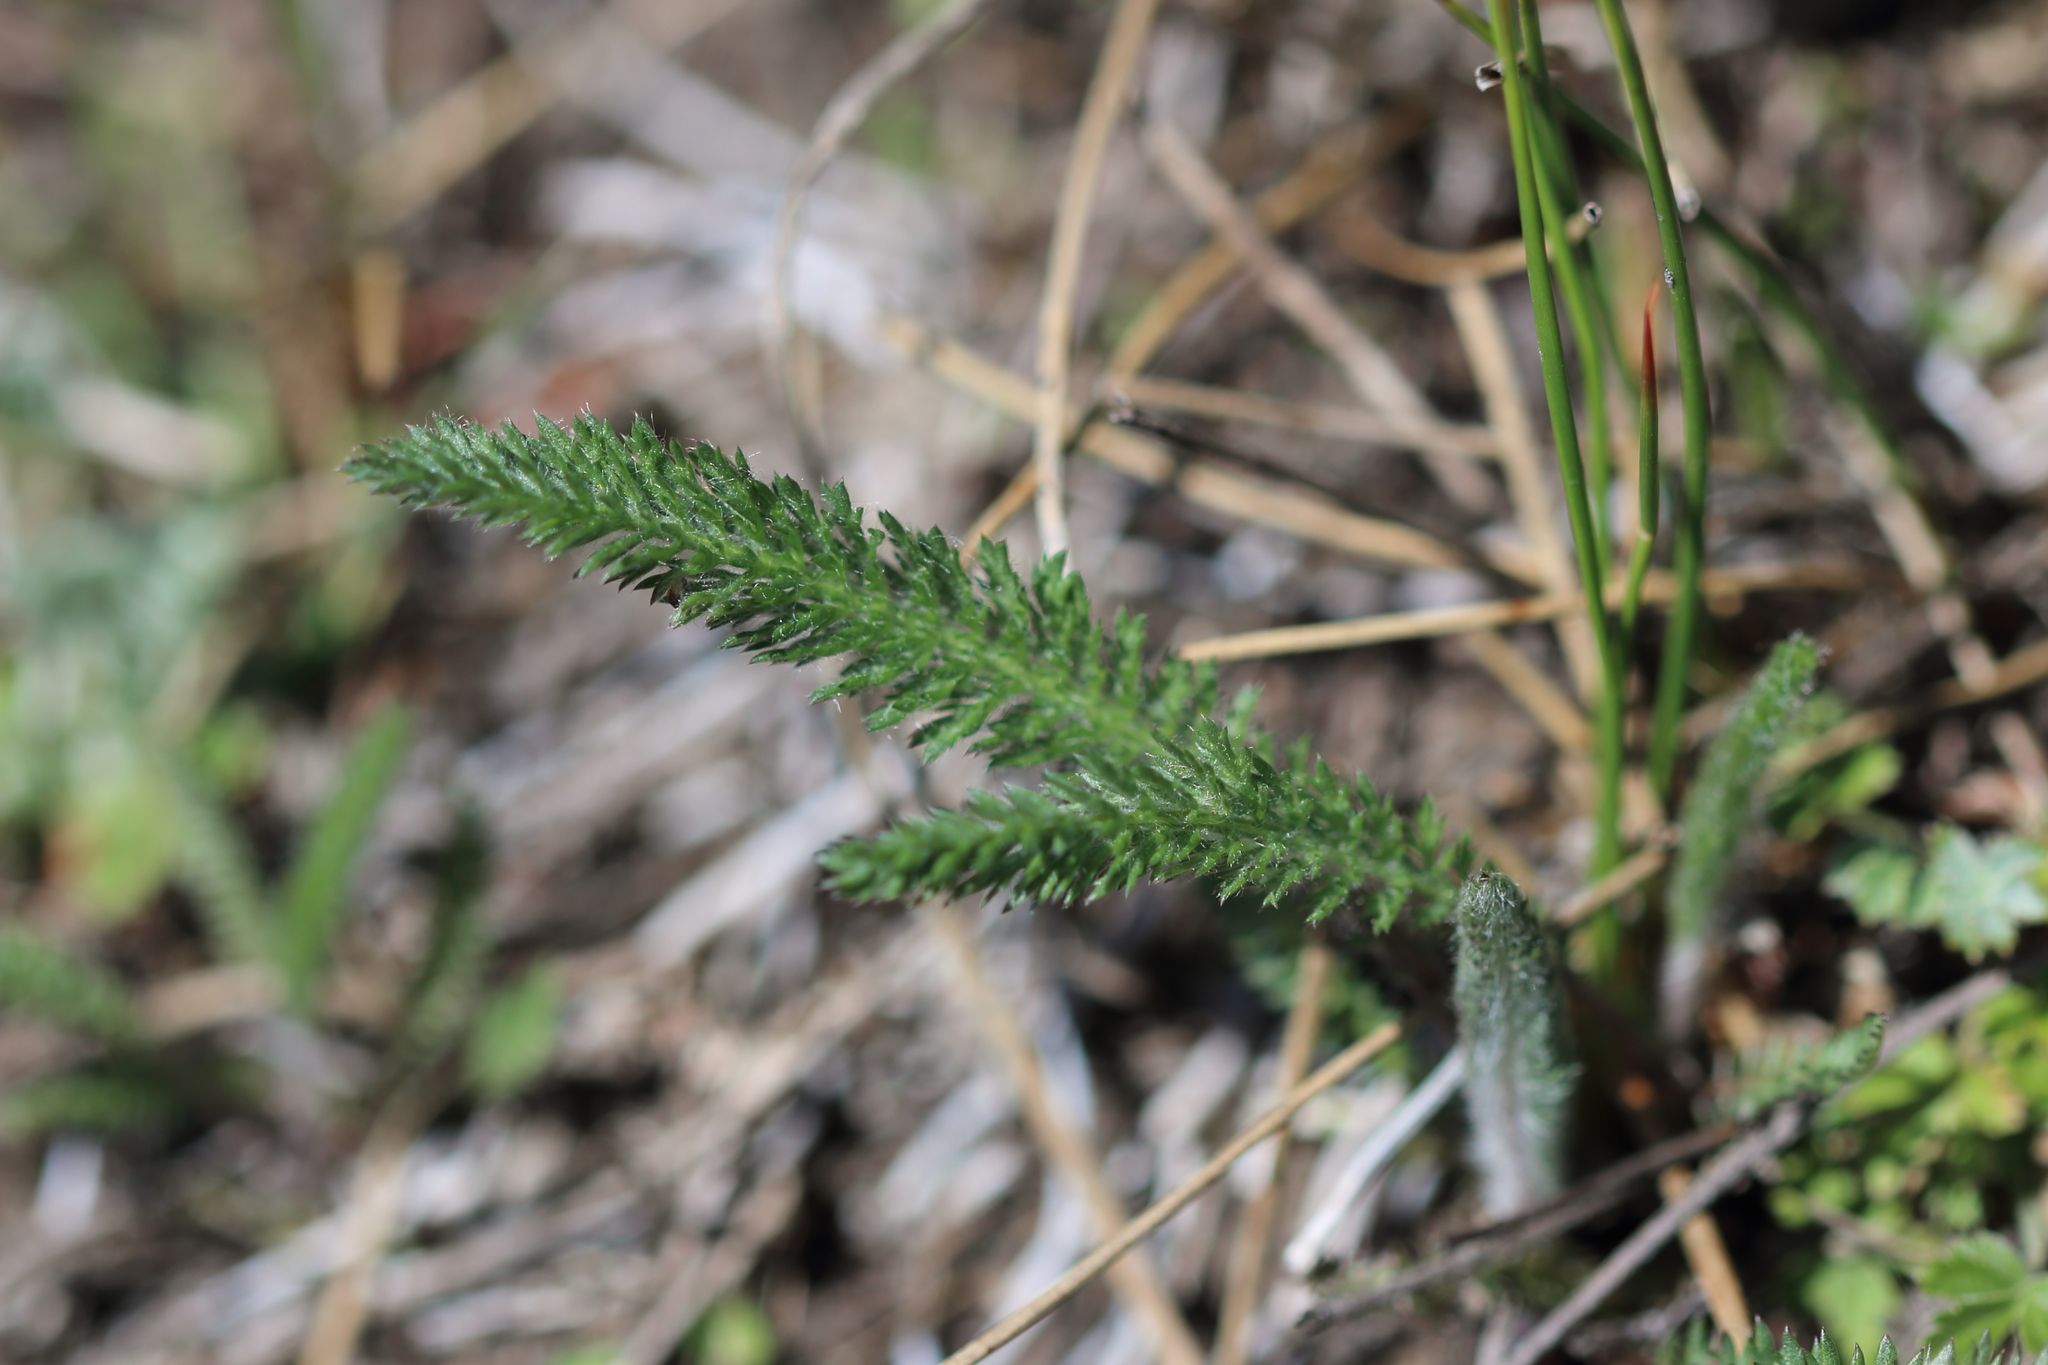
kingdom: Plantae
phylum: Tracheophyta
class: Magnoliopsida
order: Asterales
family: Asteraceae
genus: Achillea
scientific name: Achillea millefolium
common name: Yarrow
